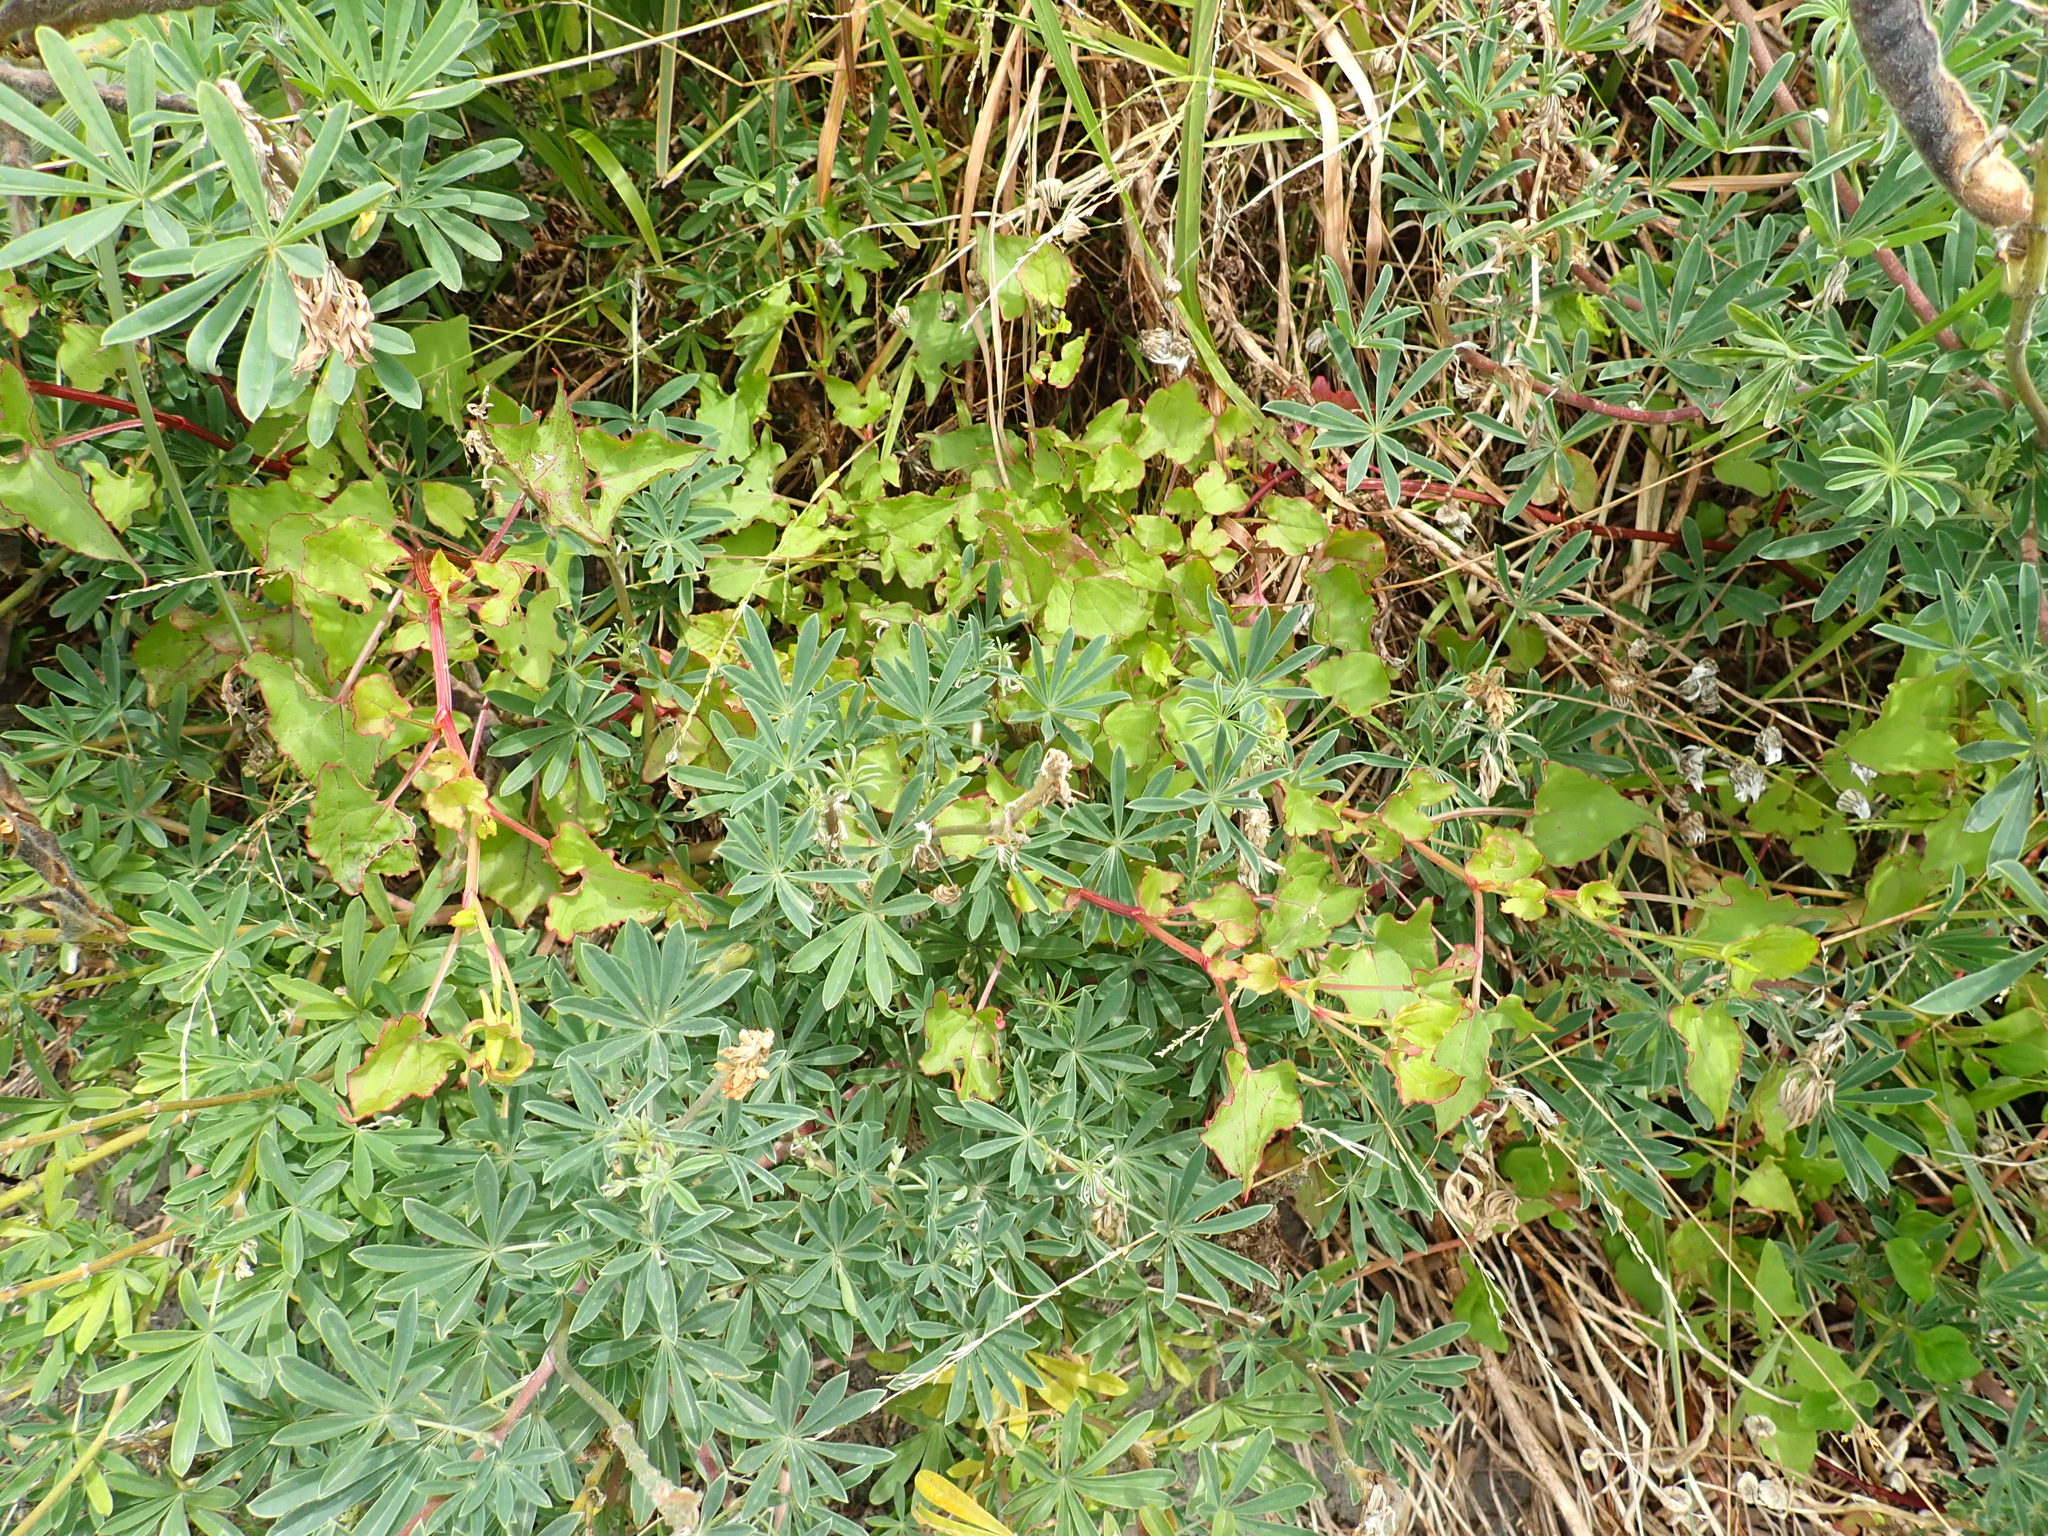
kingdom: Plantae
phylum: Tracheophyta
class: Magnoliopsida
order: Caryophyllales
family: Polygonaceae
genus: Rumex
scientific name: Rumex sagittatus
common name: Climbing dock
